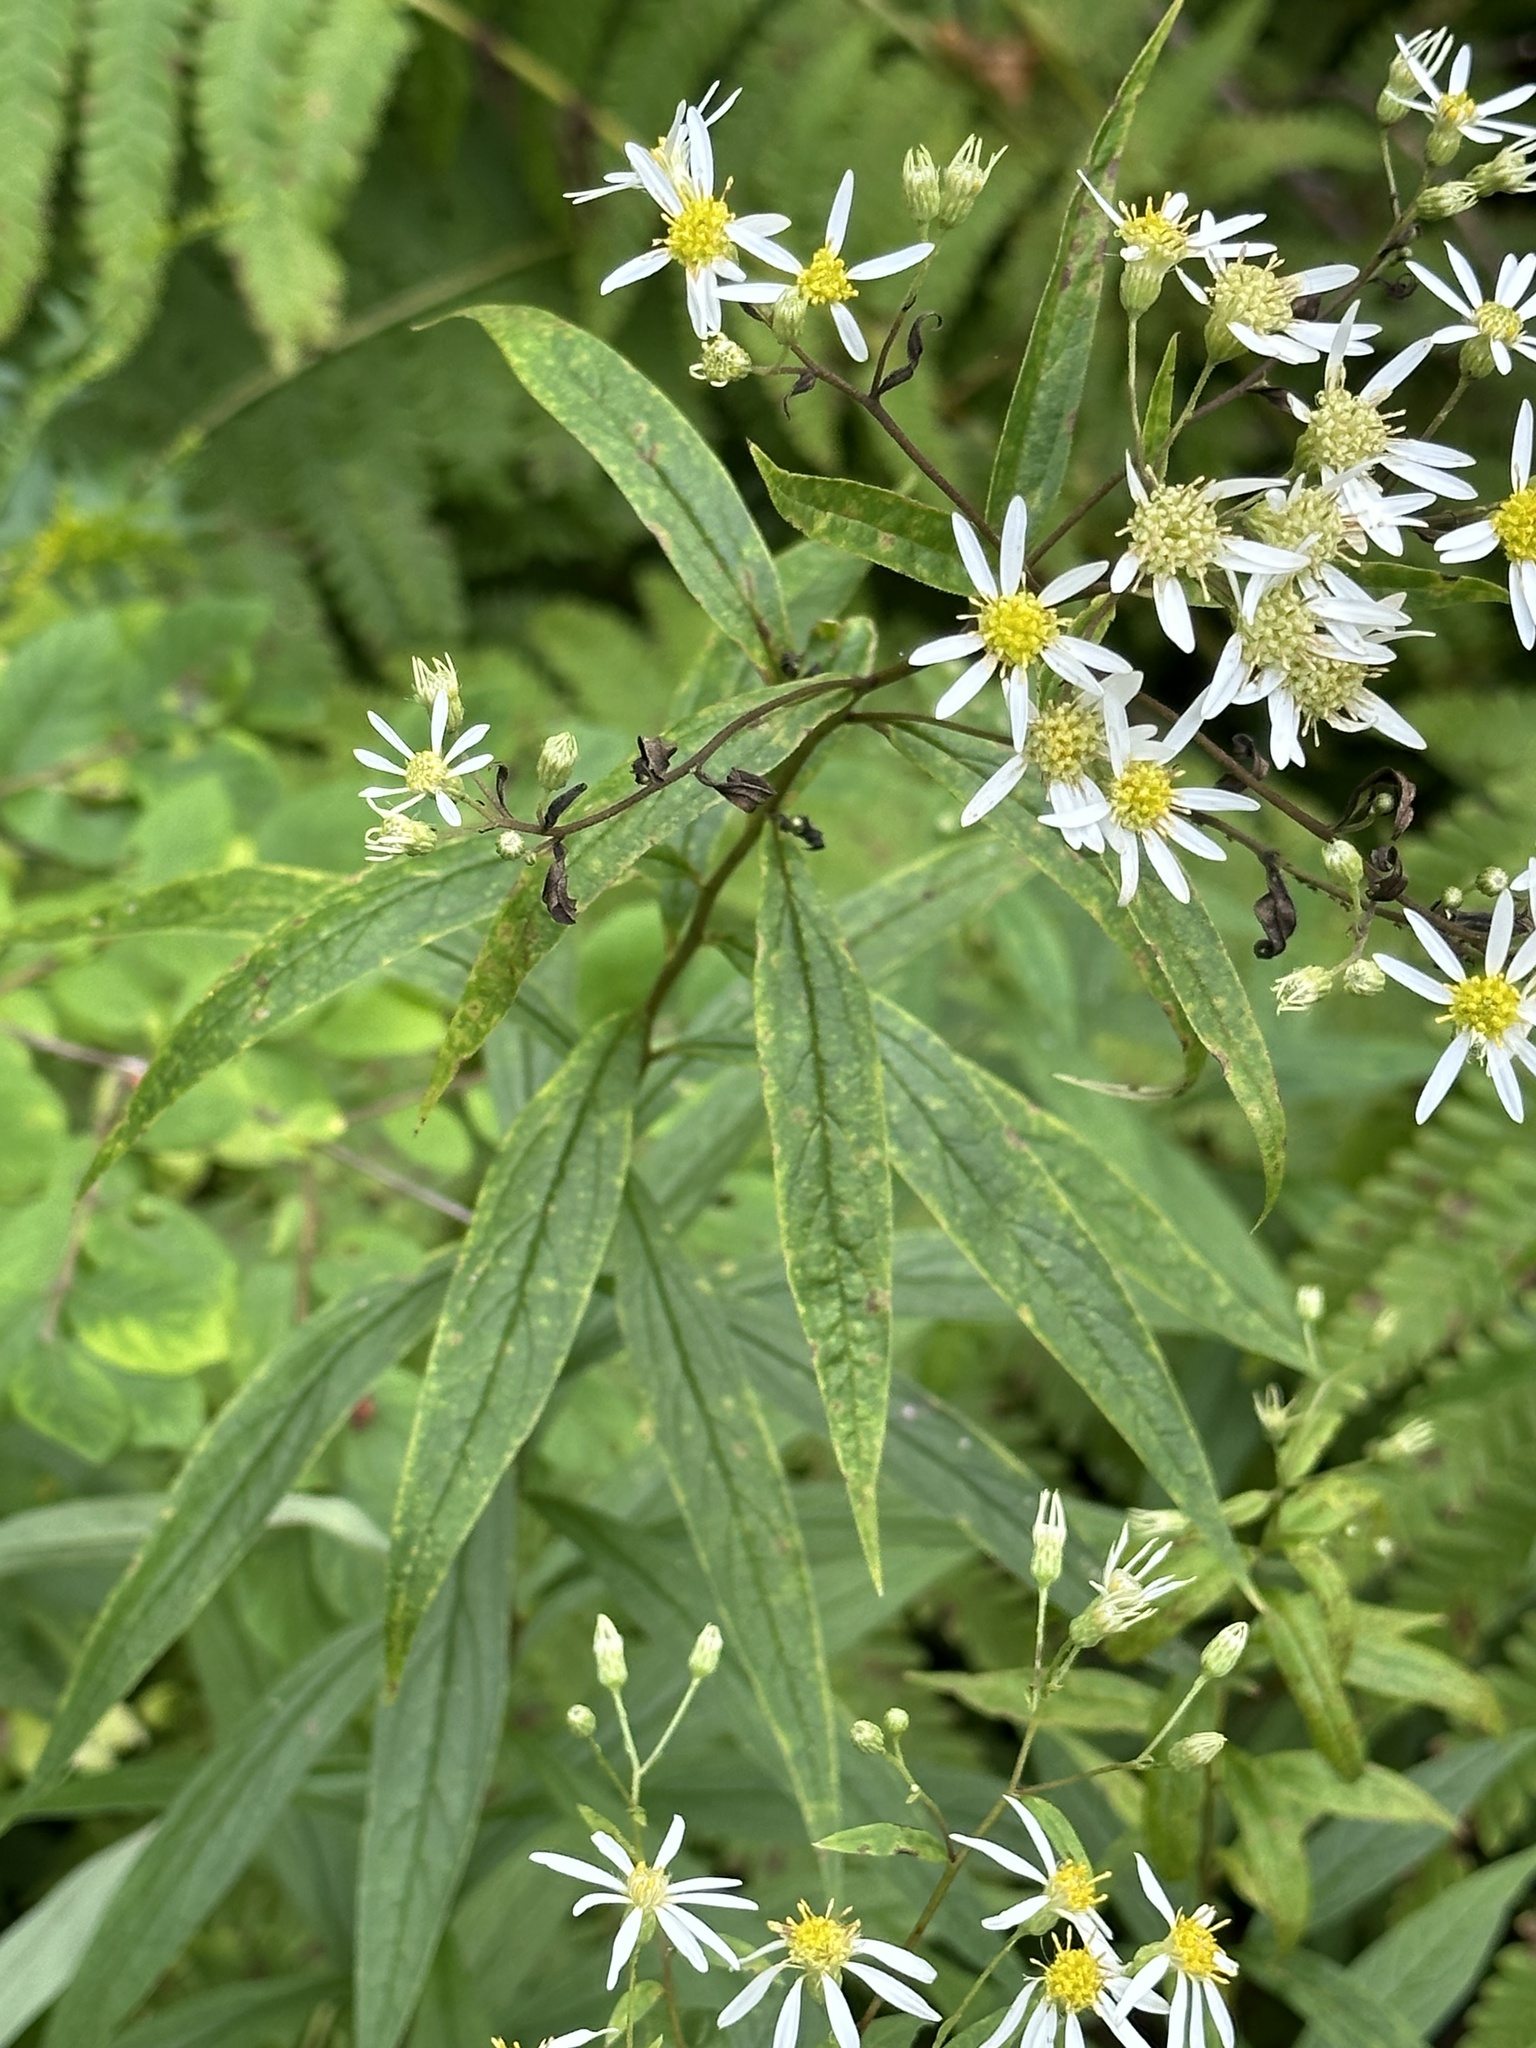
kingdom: Plantae
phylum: Tracheophyta
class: Magnoliopsida
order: Asterales
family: Asteraceae
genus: Doellingeria
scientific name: Doellingeria umbellata
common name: Flat-top white aster
